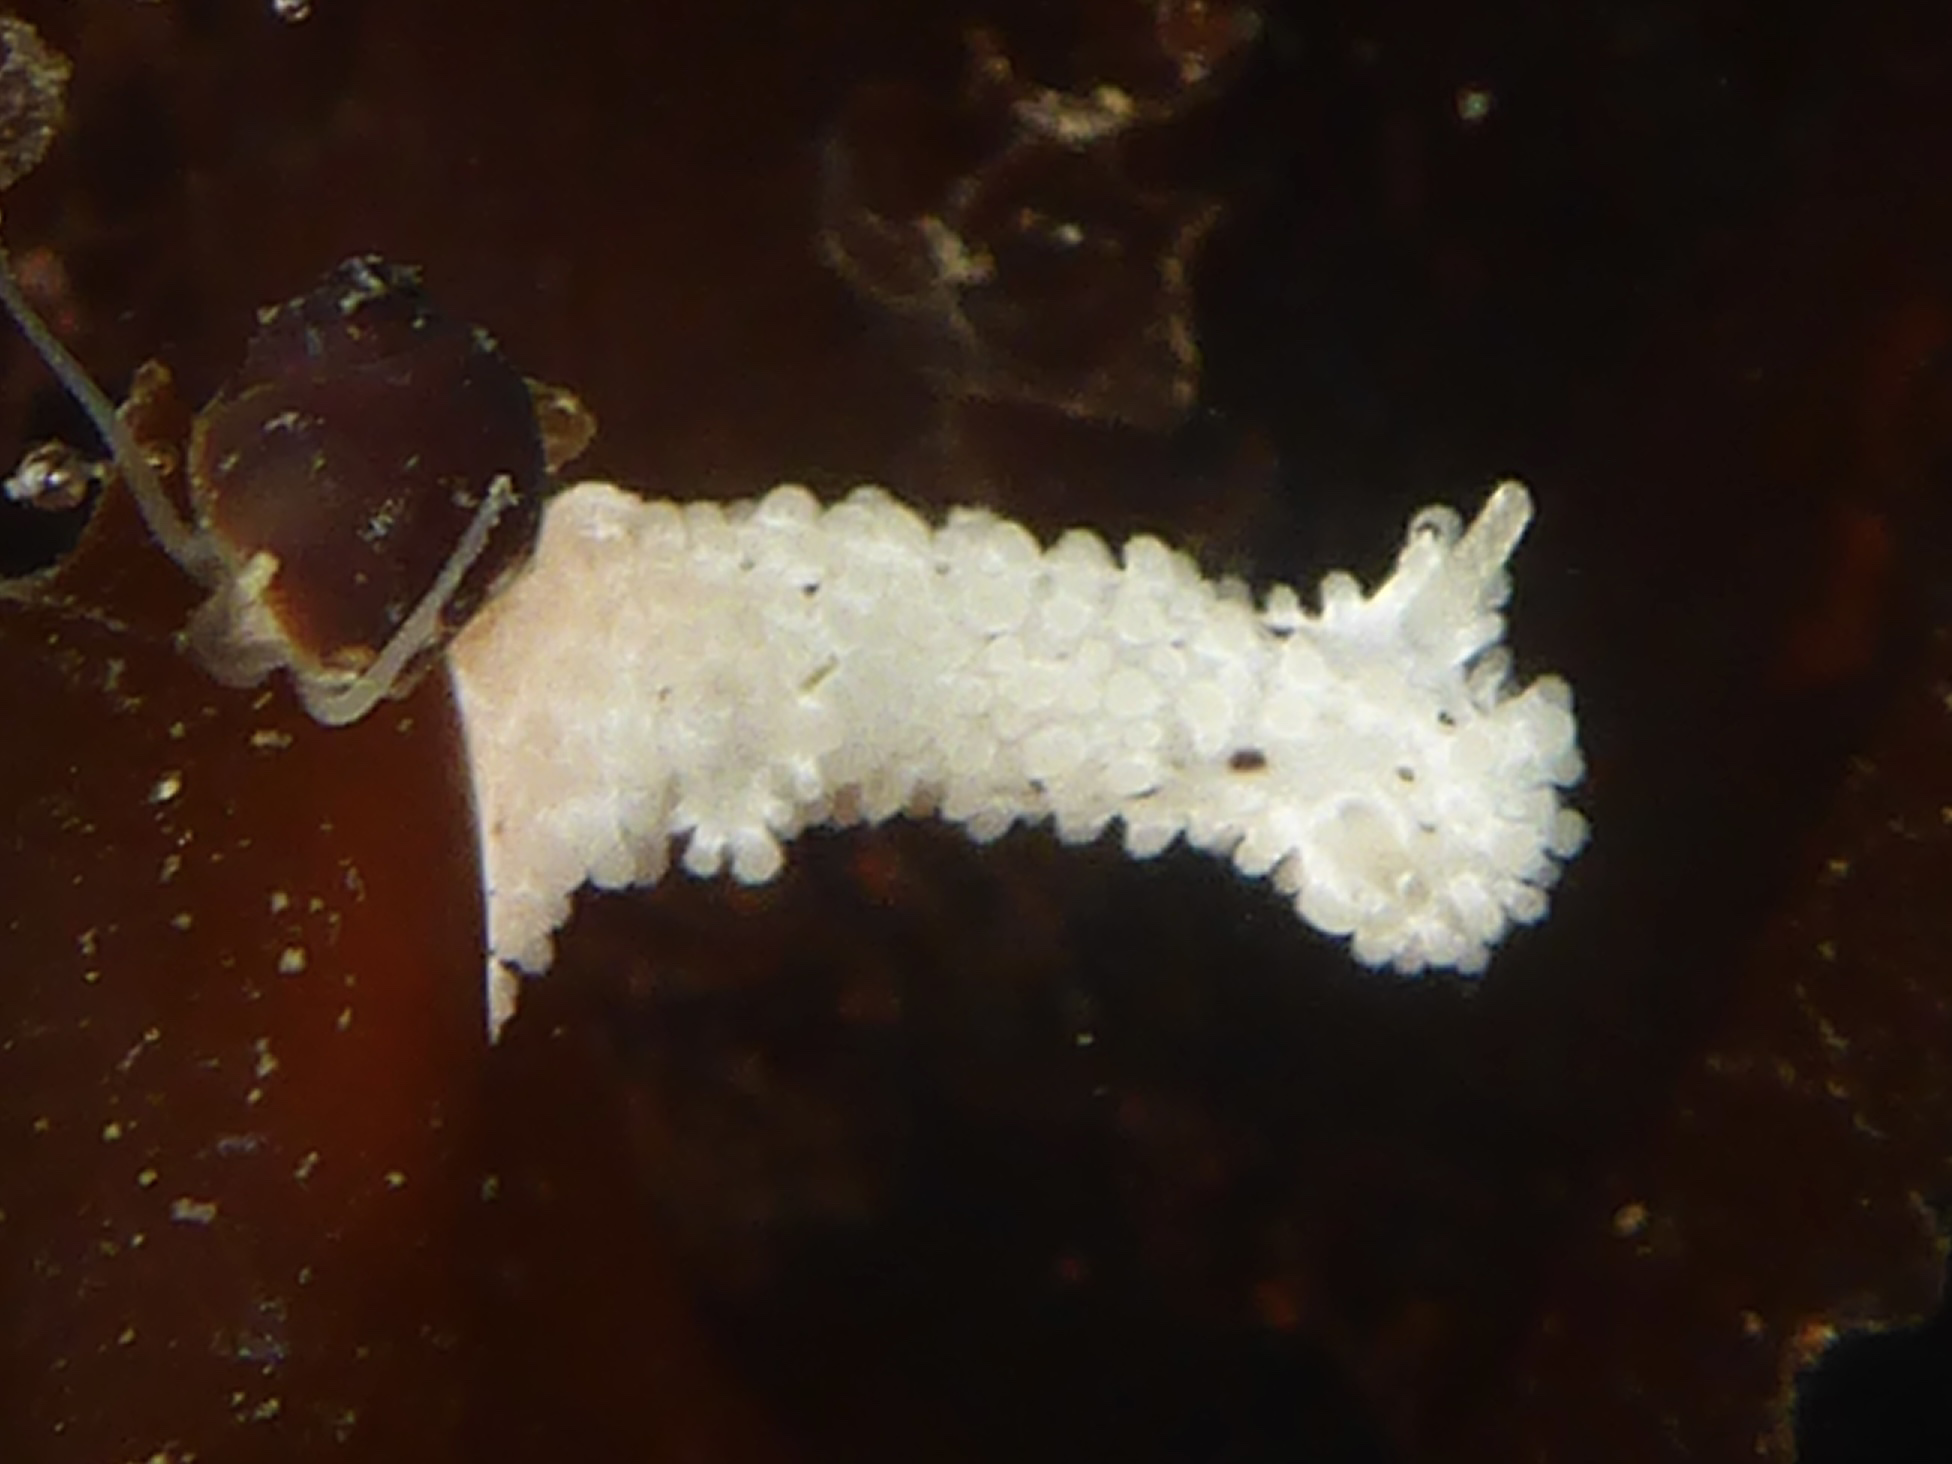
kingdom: Animalia
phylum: Mollusca
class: Gastropoda
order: Nudibranchia
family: Aegiridae
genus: Aegires
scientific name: Aegires albopunctatus
